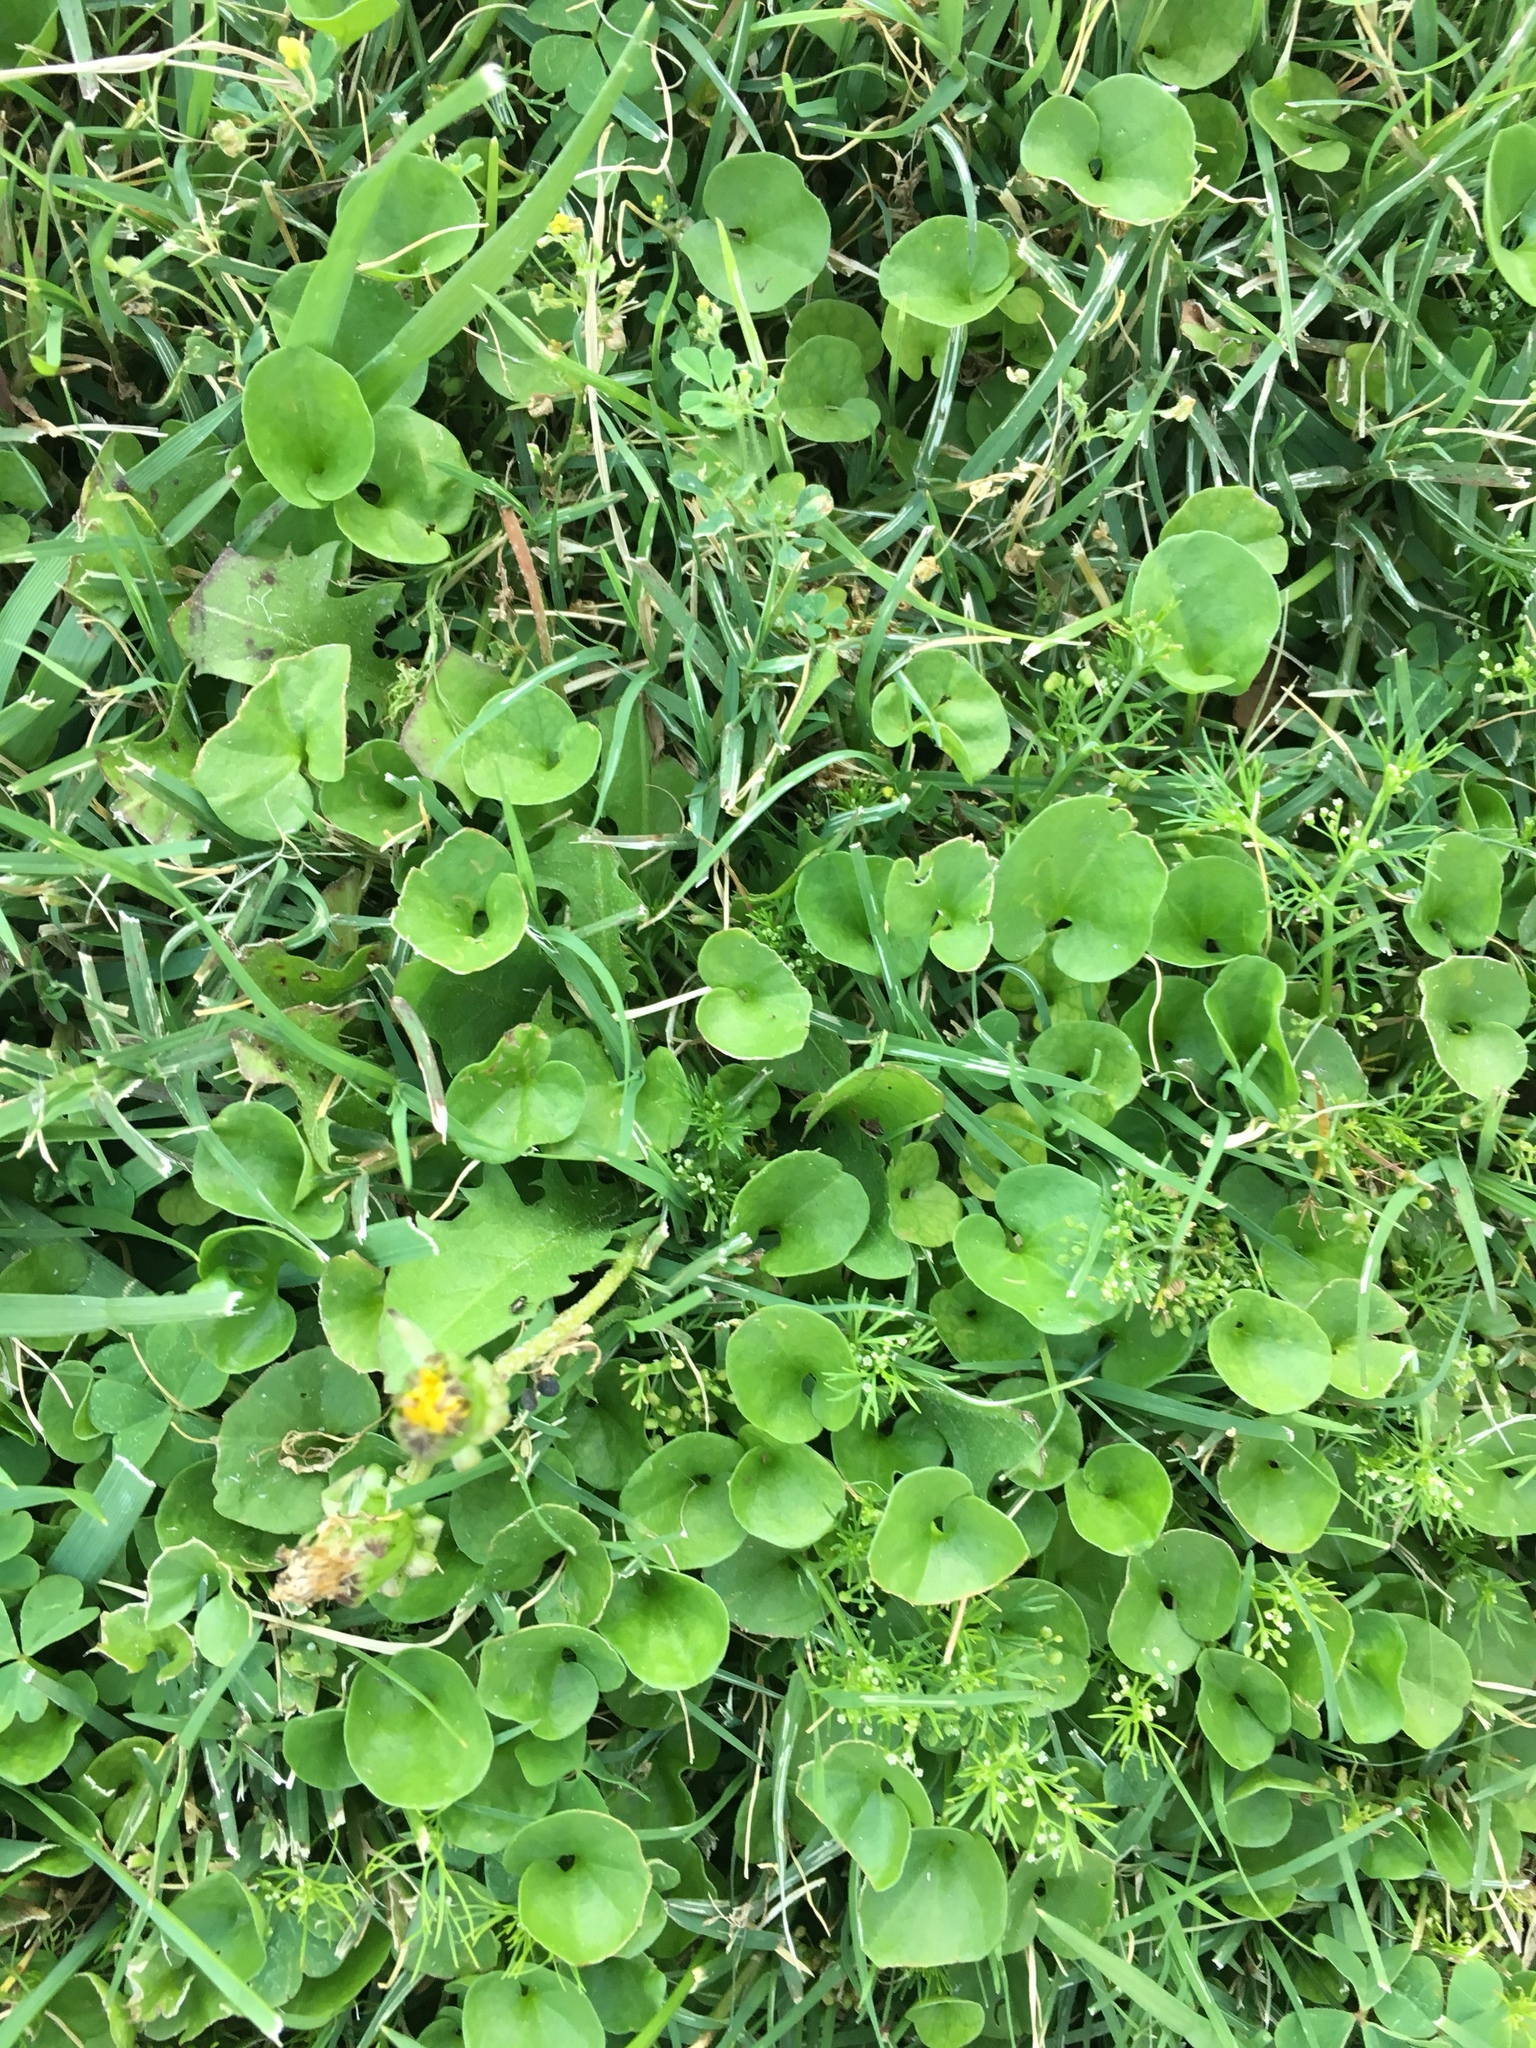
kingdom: Plantae
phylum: Tracheophyta
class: Magnoliopsida
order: Solanales
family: Convolvulaceae
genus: Dichondra
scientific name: Dichondra micrantha
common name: Kidneyweed
